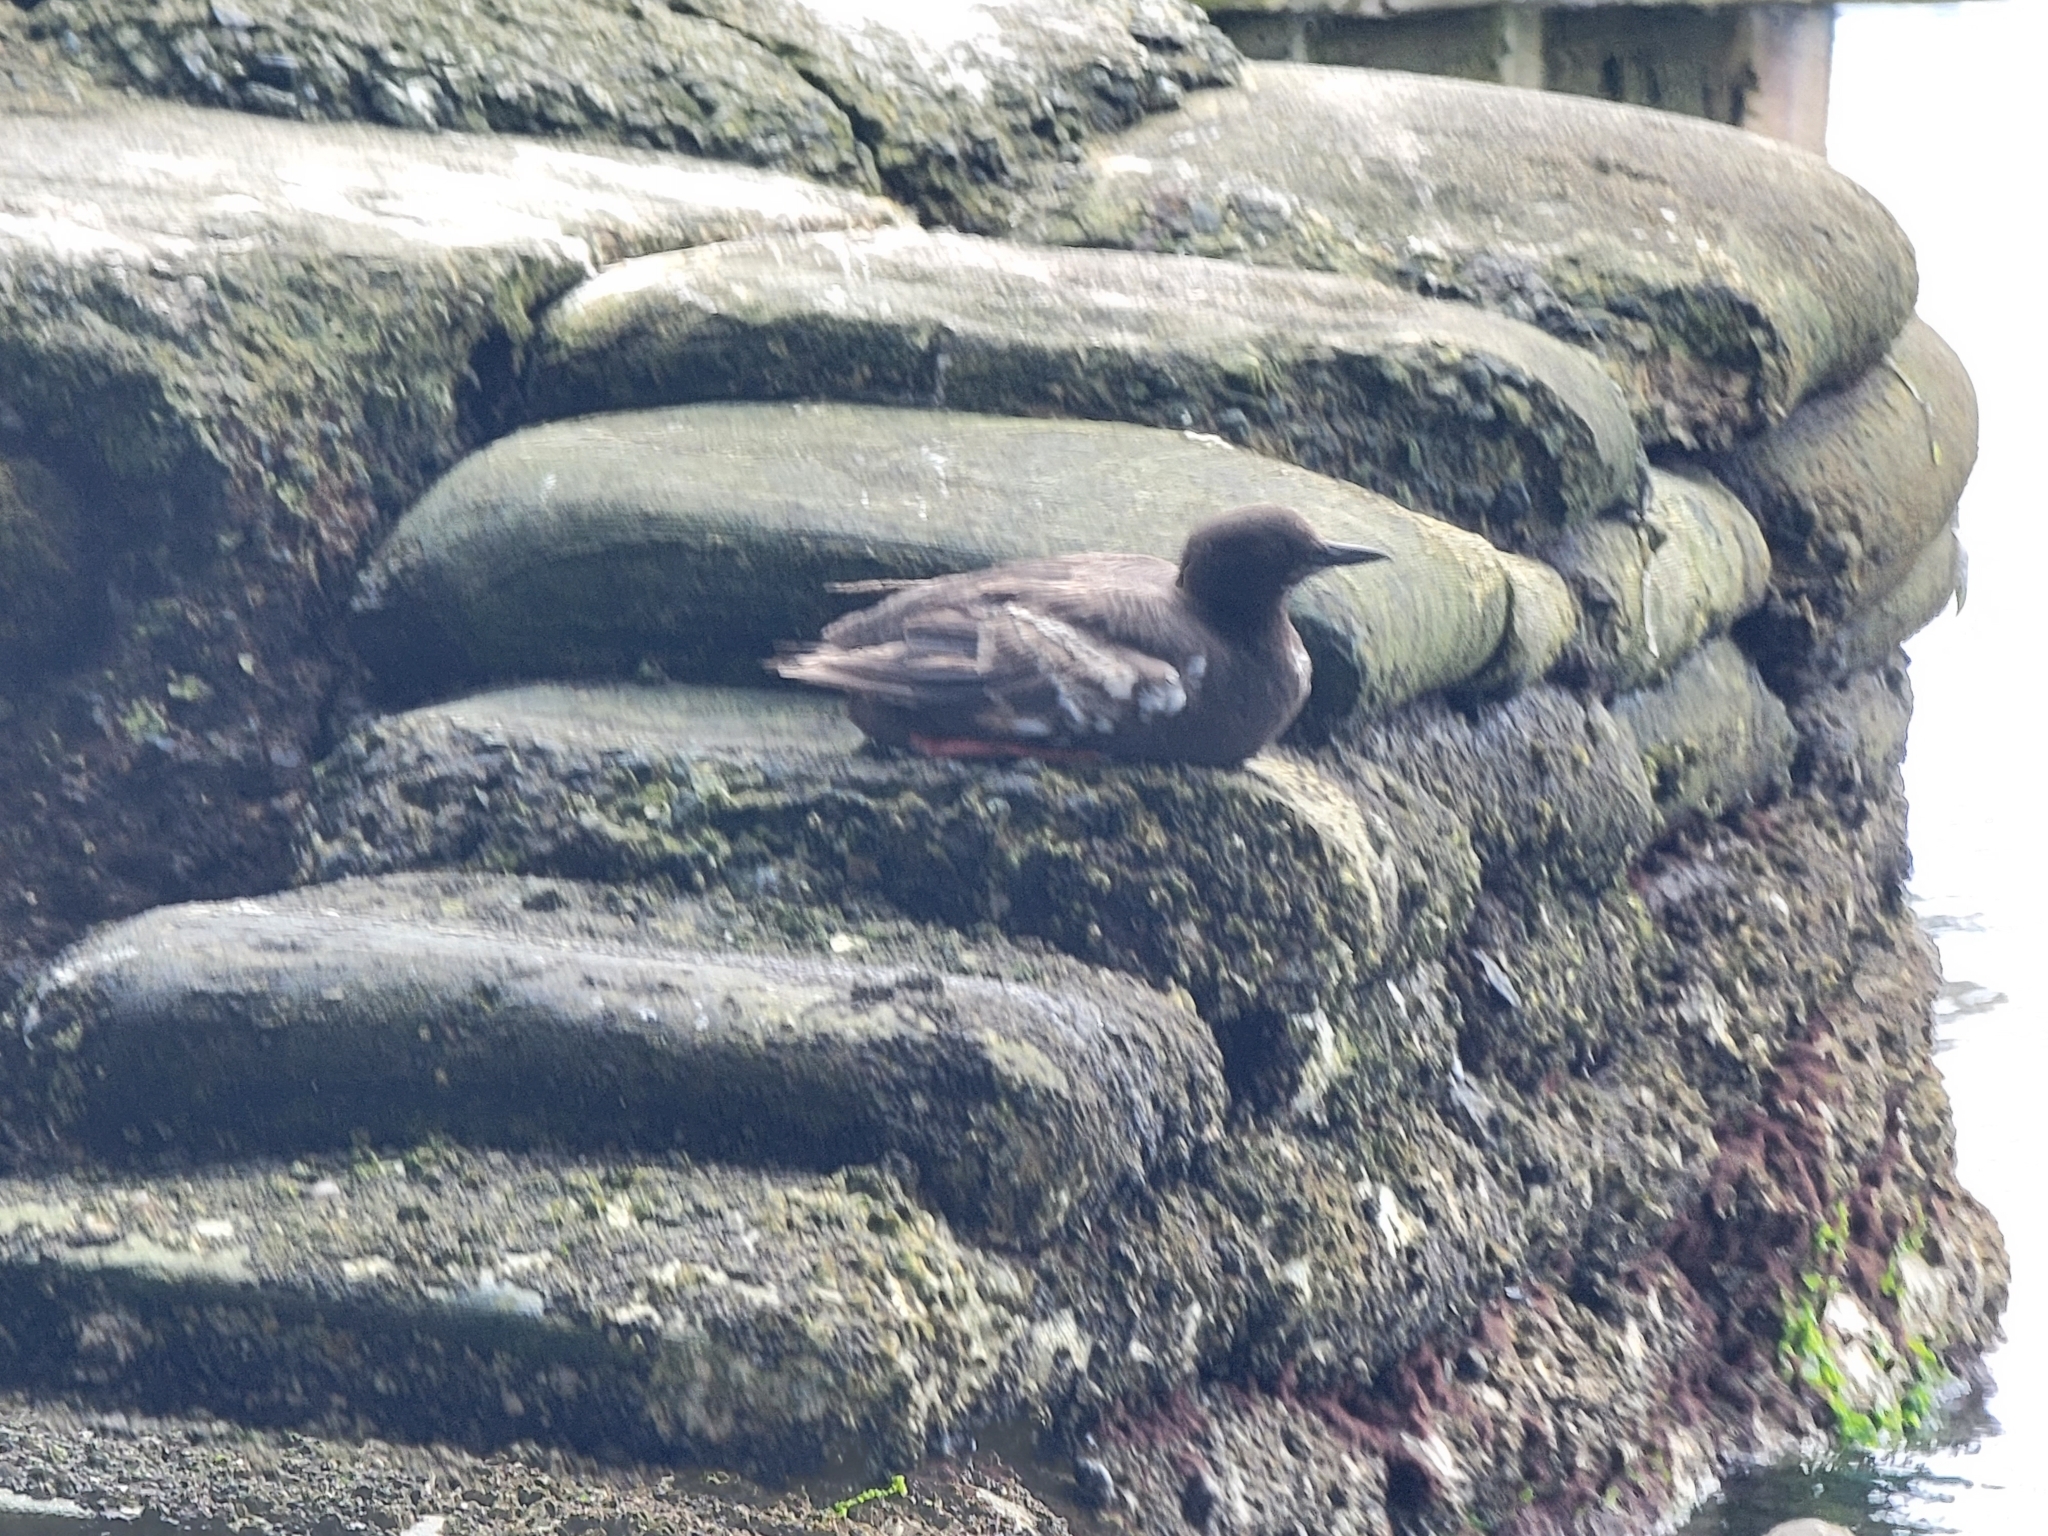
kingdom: Animalia
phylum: Chordata
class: Aves
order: Charadriiformes
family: Alcidae
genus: Cepphus
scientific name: Cepphus columba
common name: Pigeon guillemot
